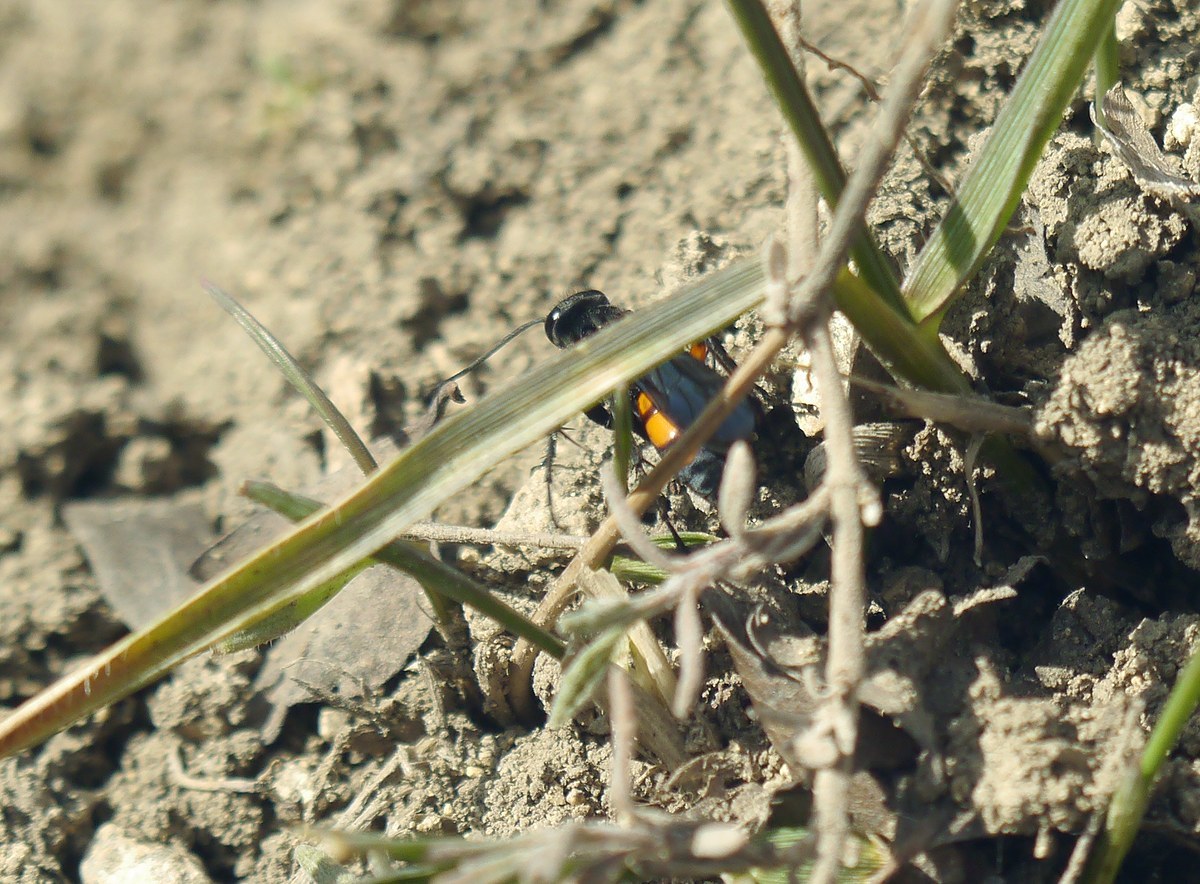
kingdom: Animalia
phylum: Arthropoda
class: Insecta
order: Hymenoptera
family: Pompilidae
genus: Anoplius
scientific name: Anoplius viaticus
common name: Black banded spider wasp
